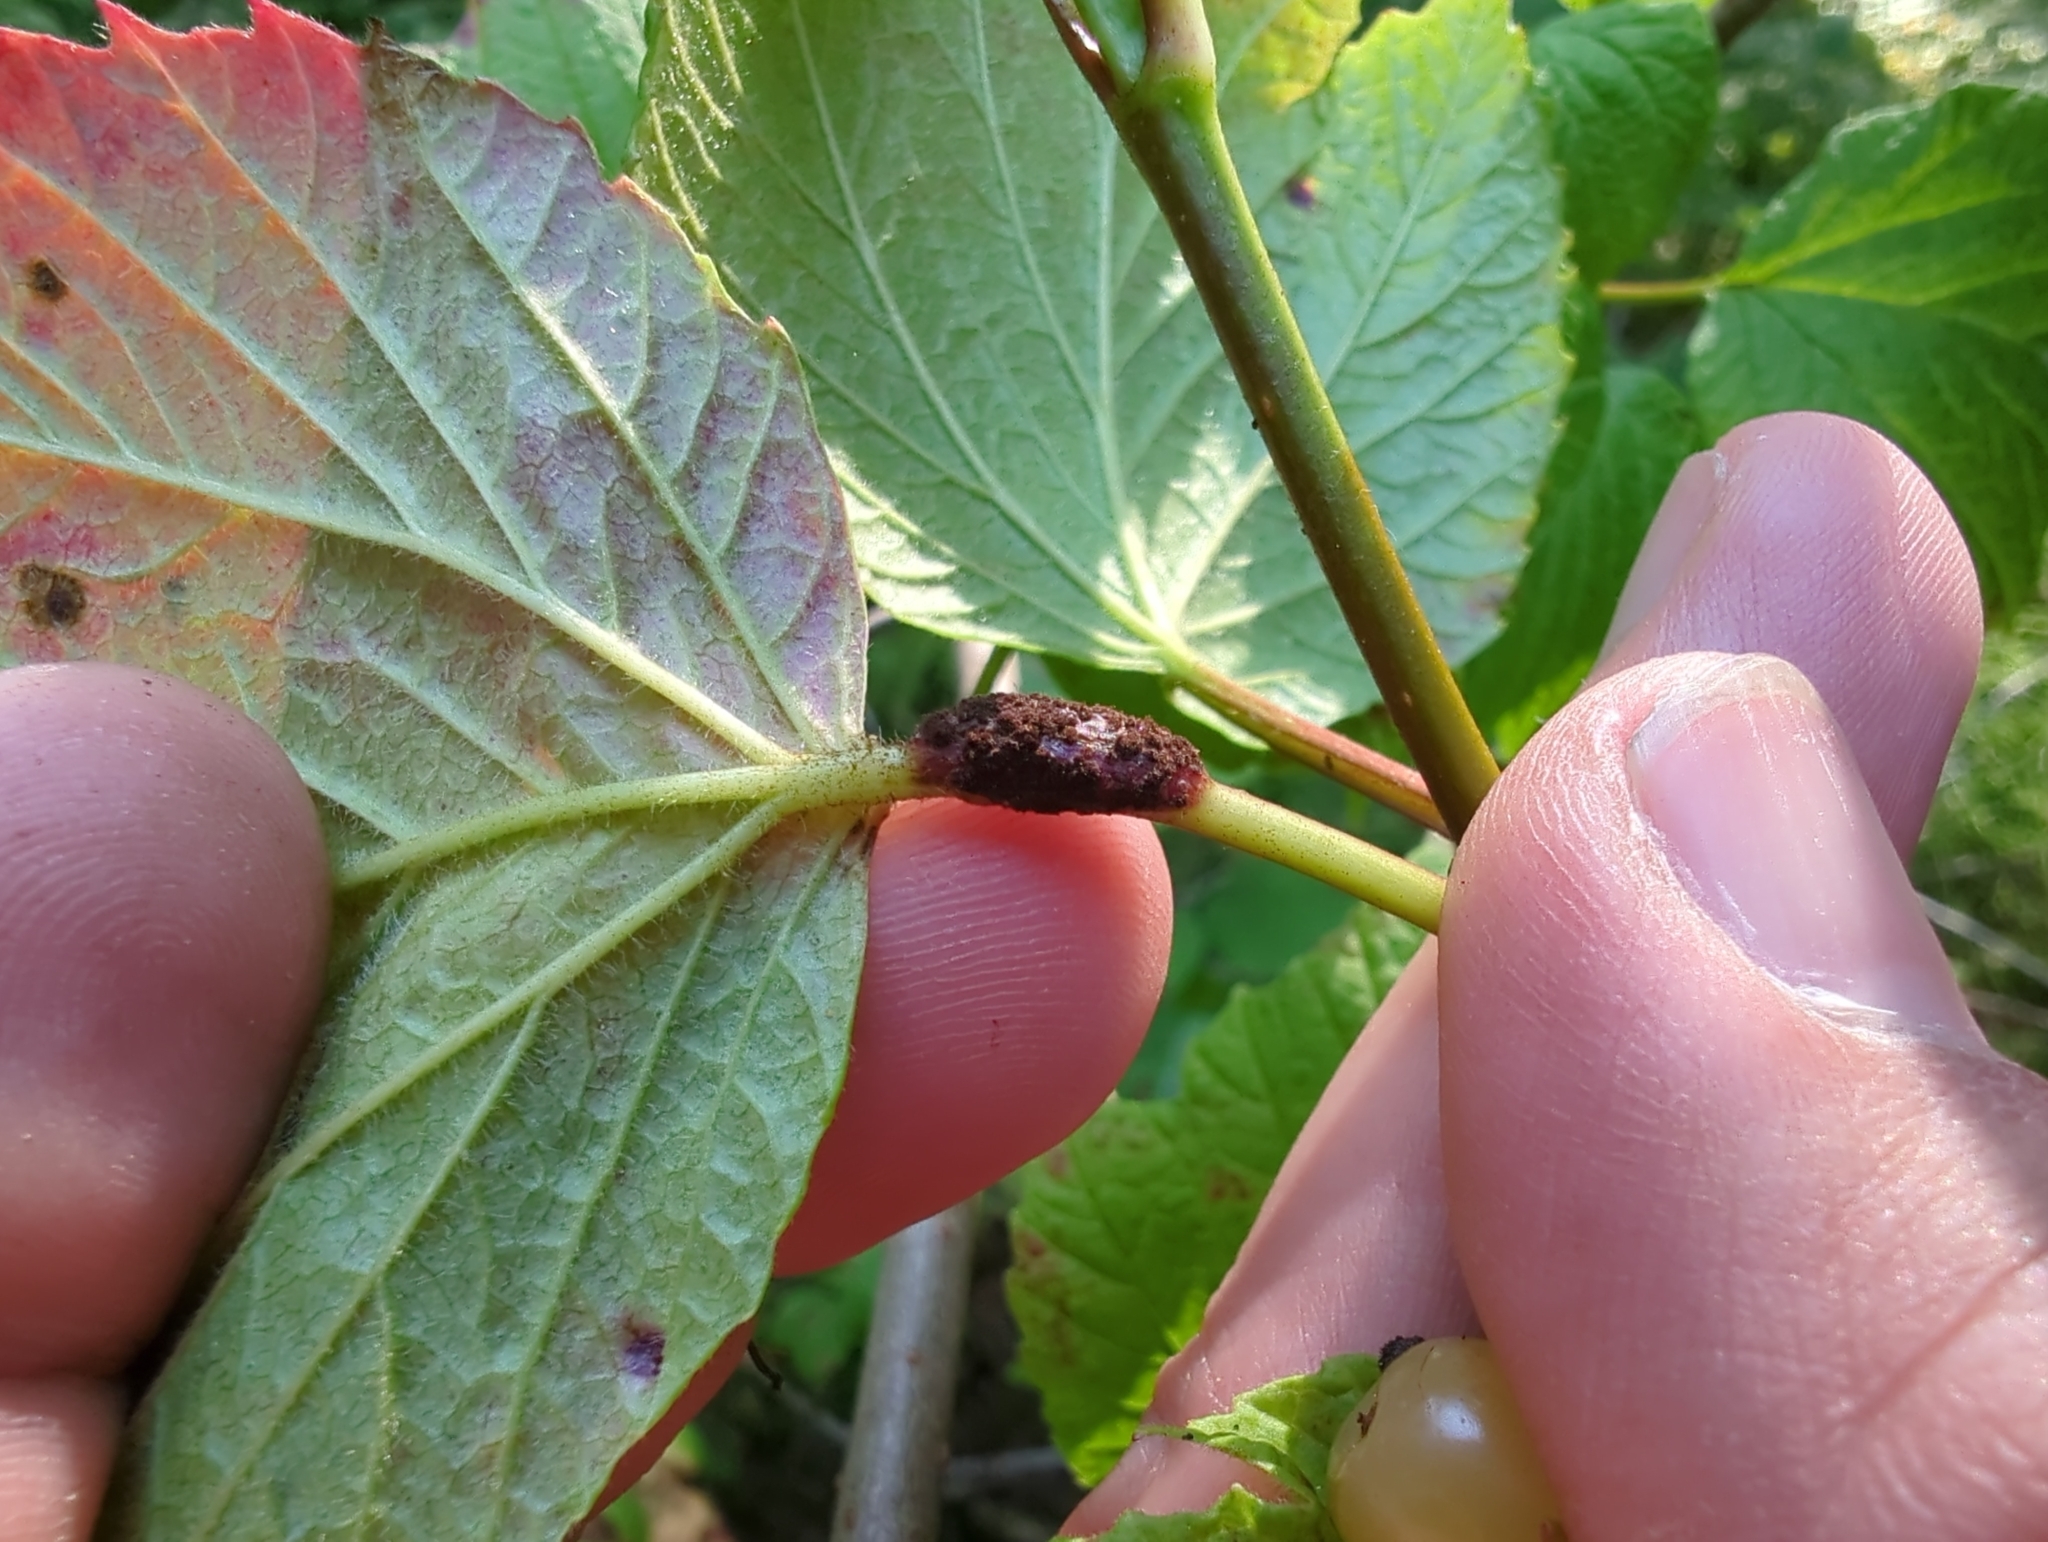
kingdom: Fungi
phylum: Basidiomycota
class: Pucciniomycetes
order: Pucciniales
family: Pucciniaceae
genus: Puccinia
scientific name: Puccinia linkii
